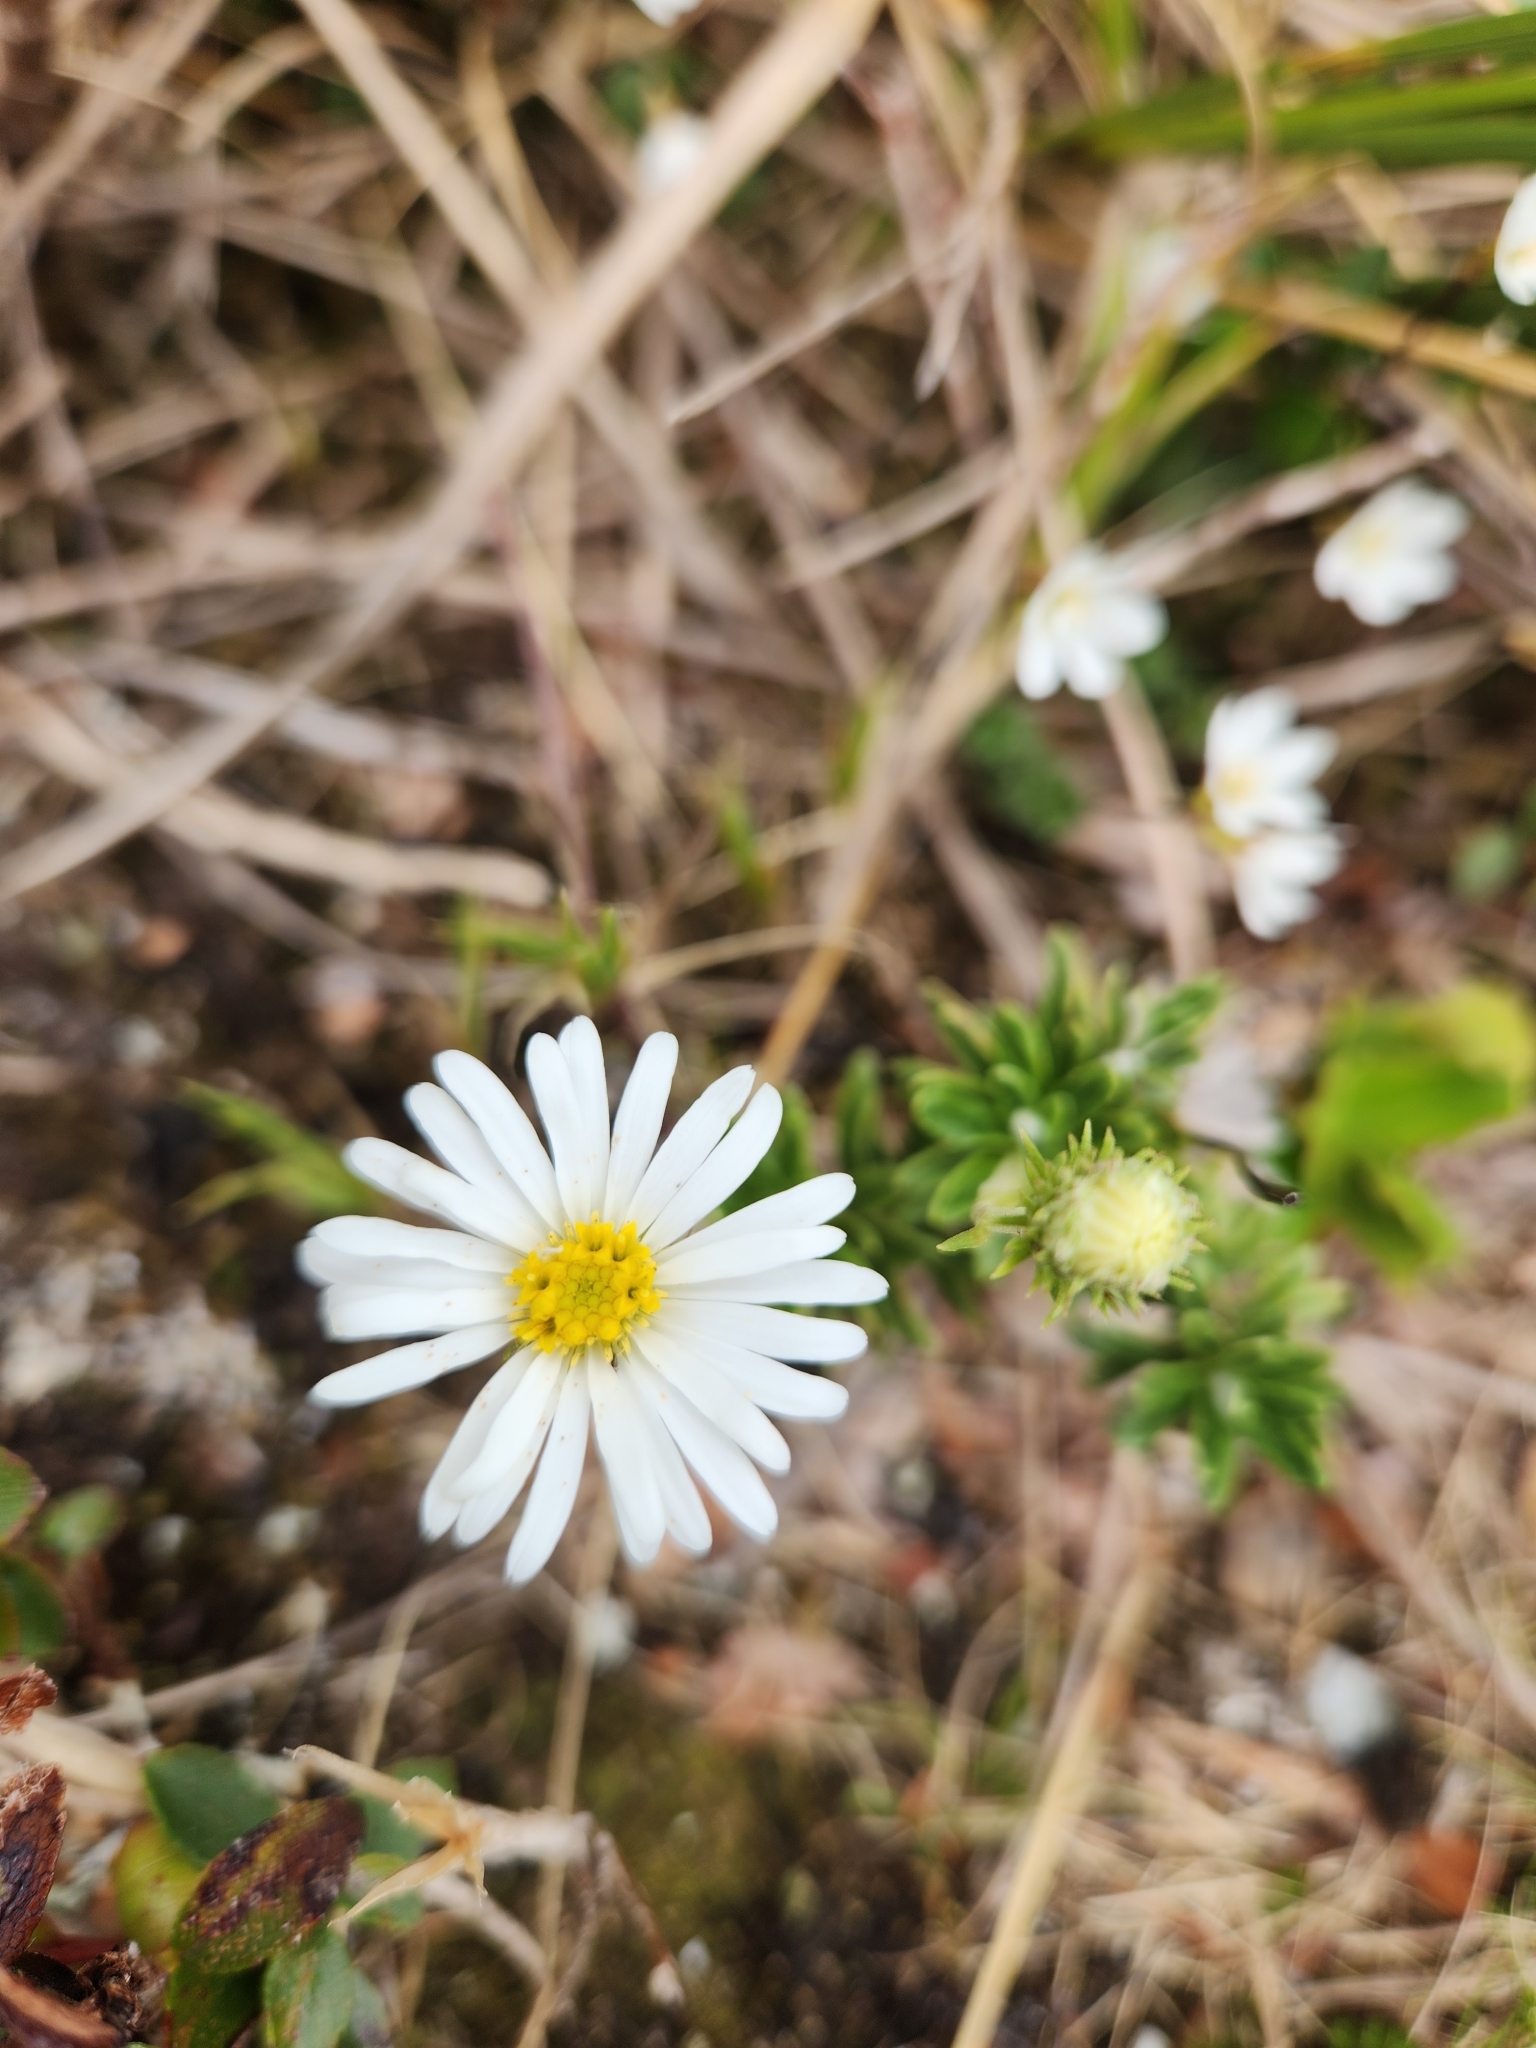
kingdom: Plantae
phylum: Tracheophyta
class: Magnoliopsida
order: Asterales
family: Asteraceae
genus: Celmisia
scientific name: Celmisia walkeri
